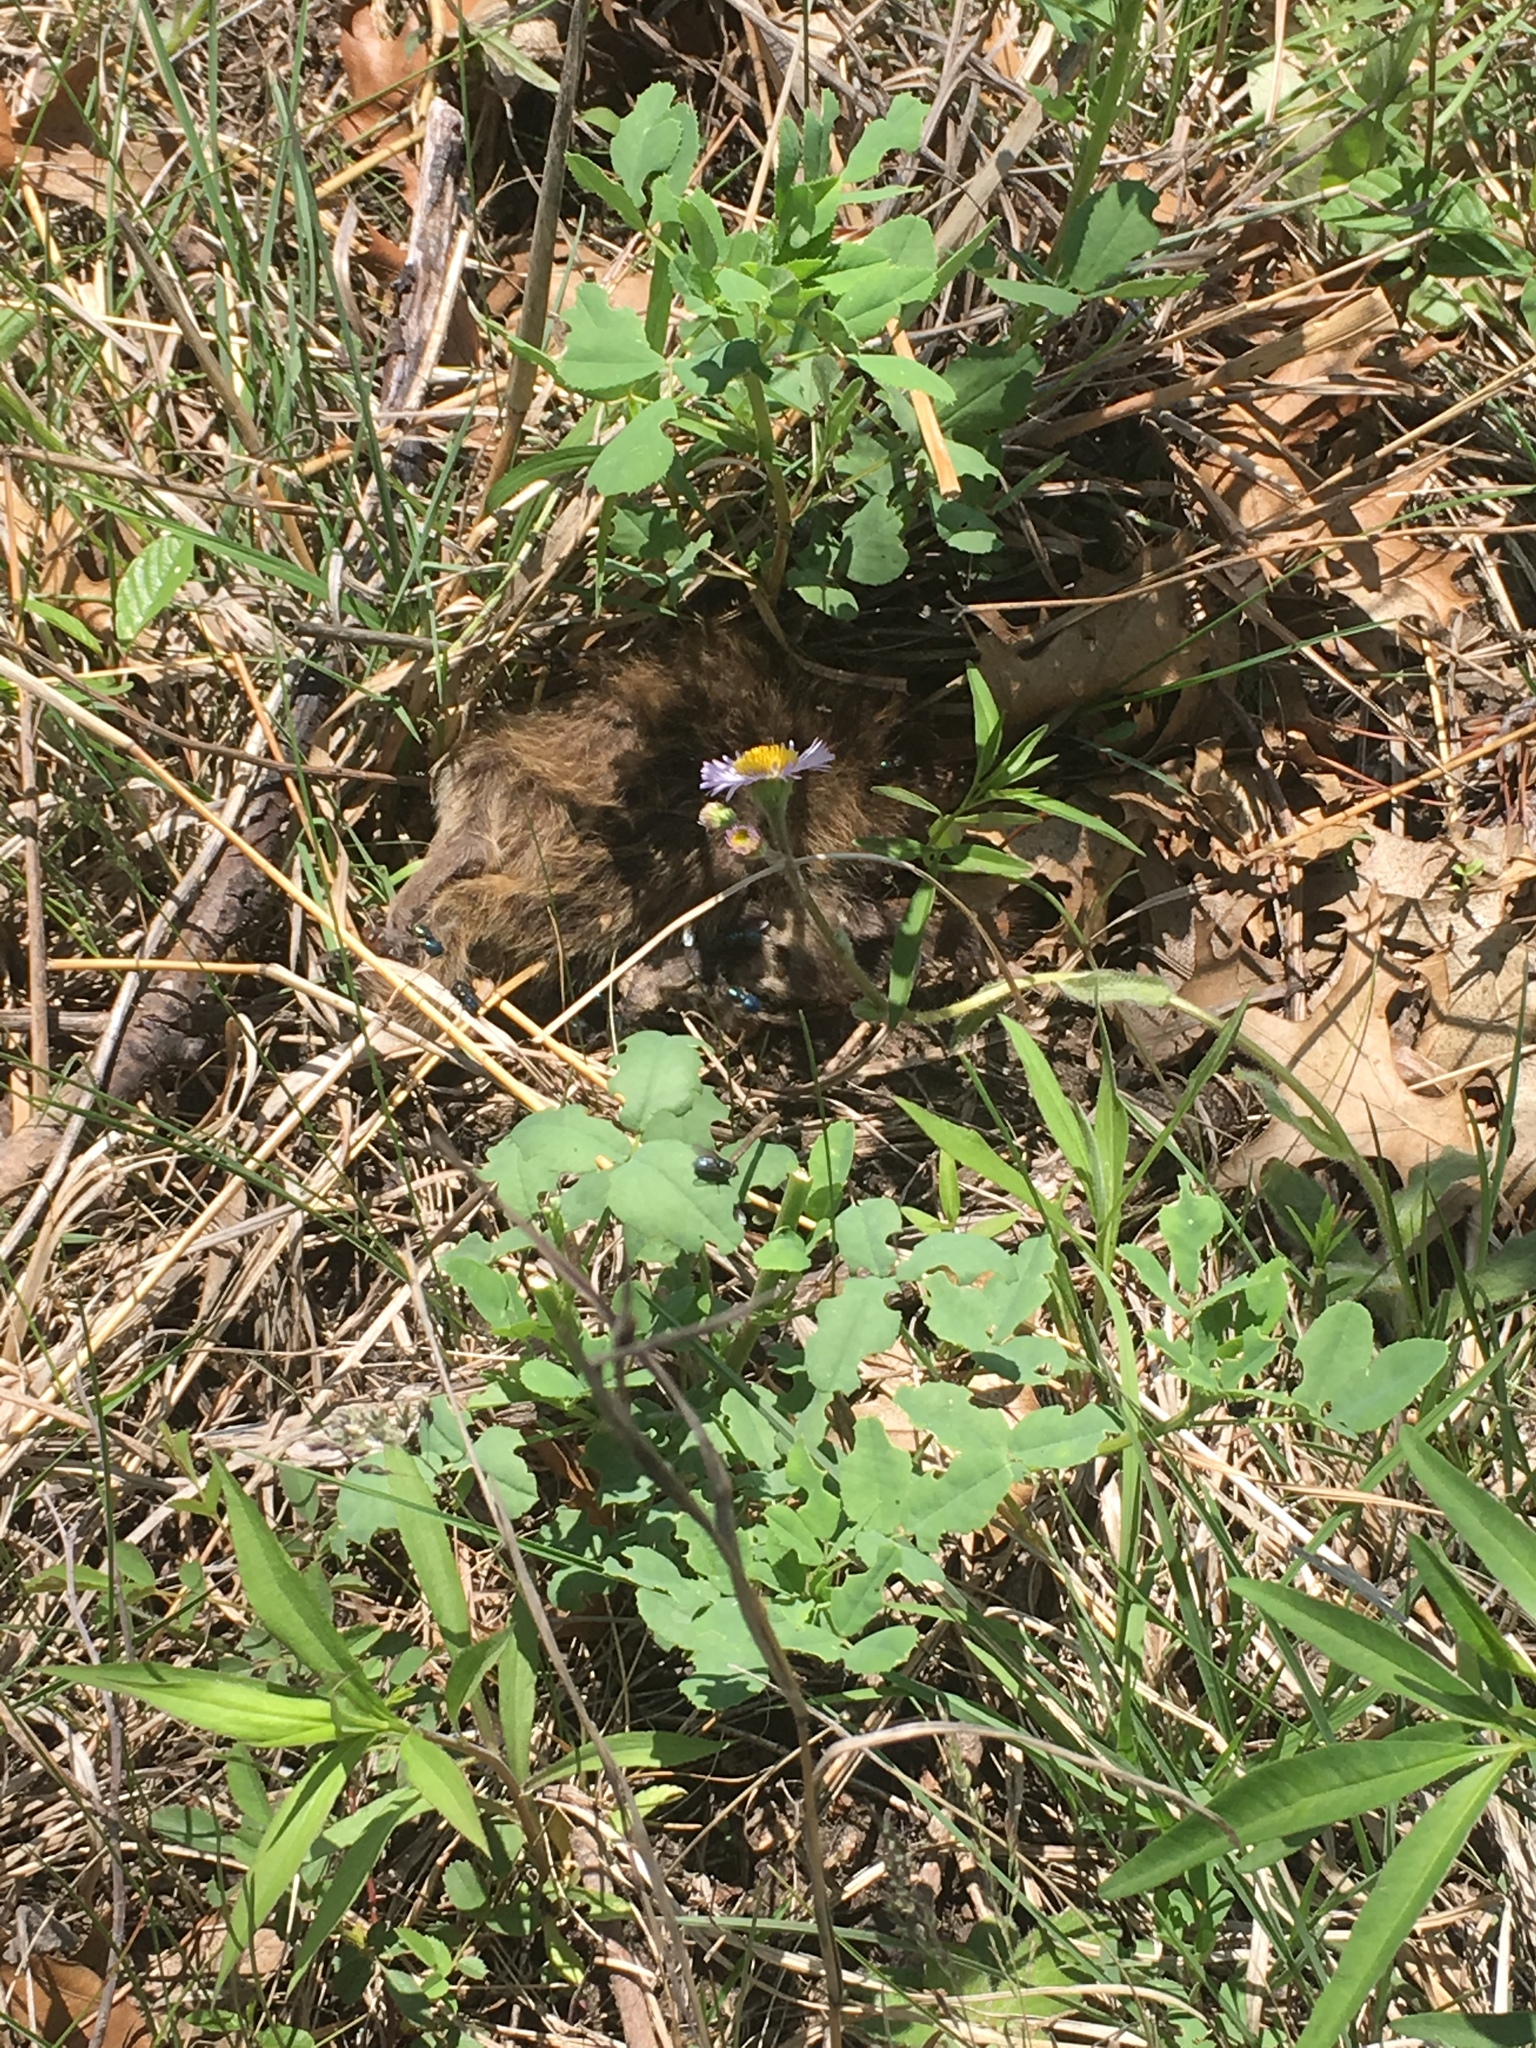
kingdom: Animalia
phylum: Chordata
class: Mammalia
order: Rodentia
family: Cricetidae
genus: Ondatra
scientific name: Ondatra zibethicus
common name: Muskrat
